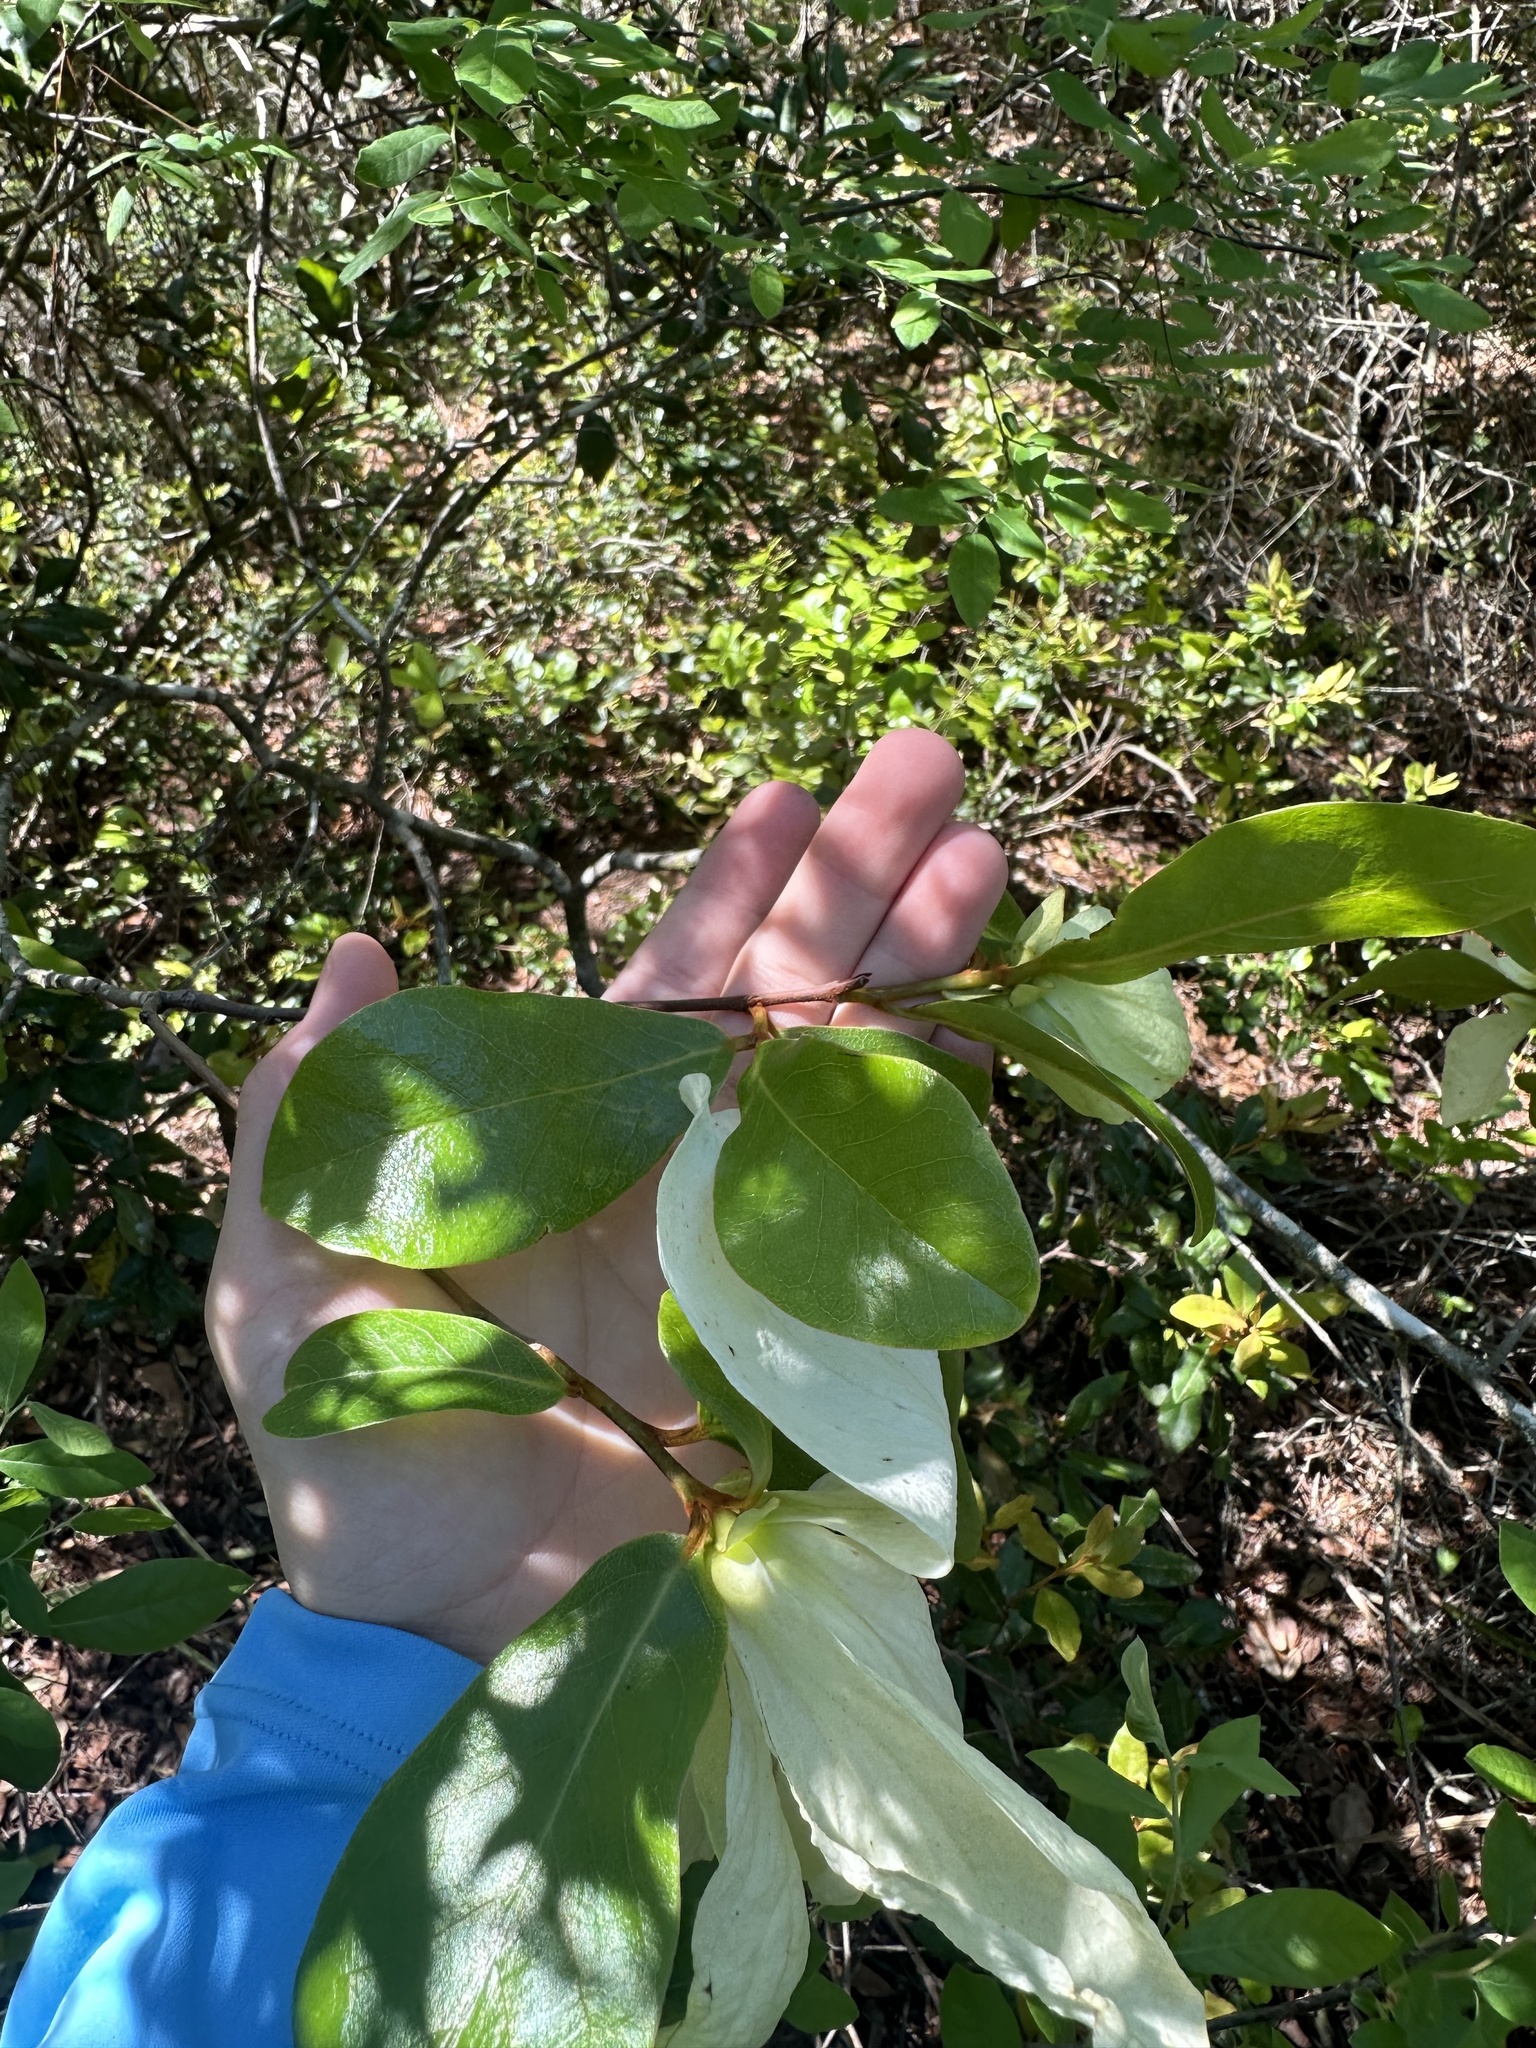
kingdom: Plantae
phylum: Tracheophyta
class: Magnoliopsida
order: Magnoliales
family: Annonaceae
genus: Asimina
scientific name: Asimina obovata
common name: Flag pawpaw
